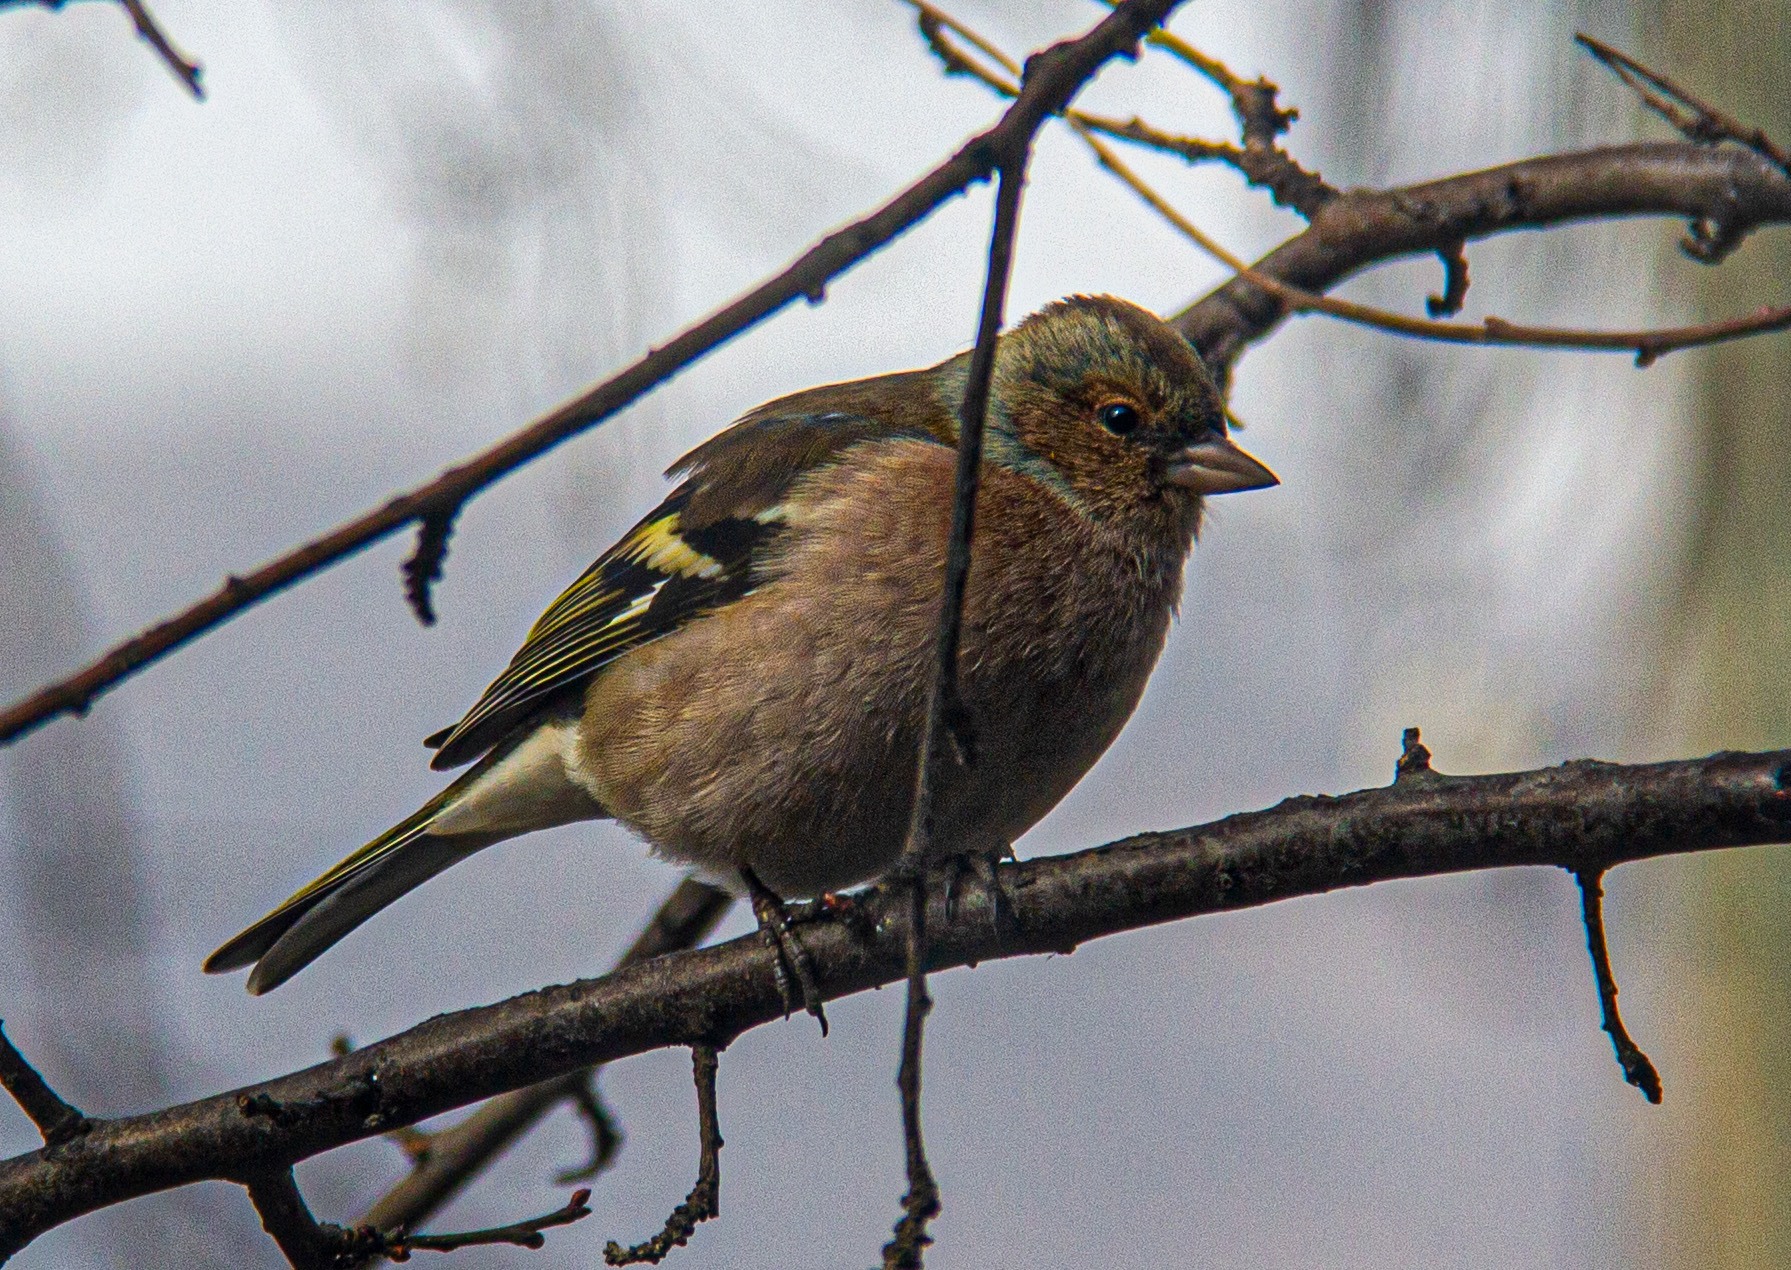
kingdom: Animalia
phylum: Chordata
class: Aves
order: Passeriformes
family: Fringillidae
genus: Fringilla
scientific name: Fringilla coelebs
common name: Common chaffinch
